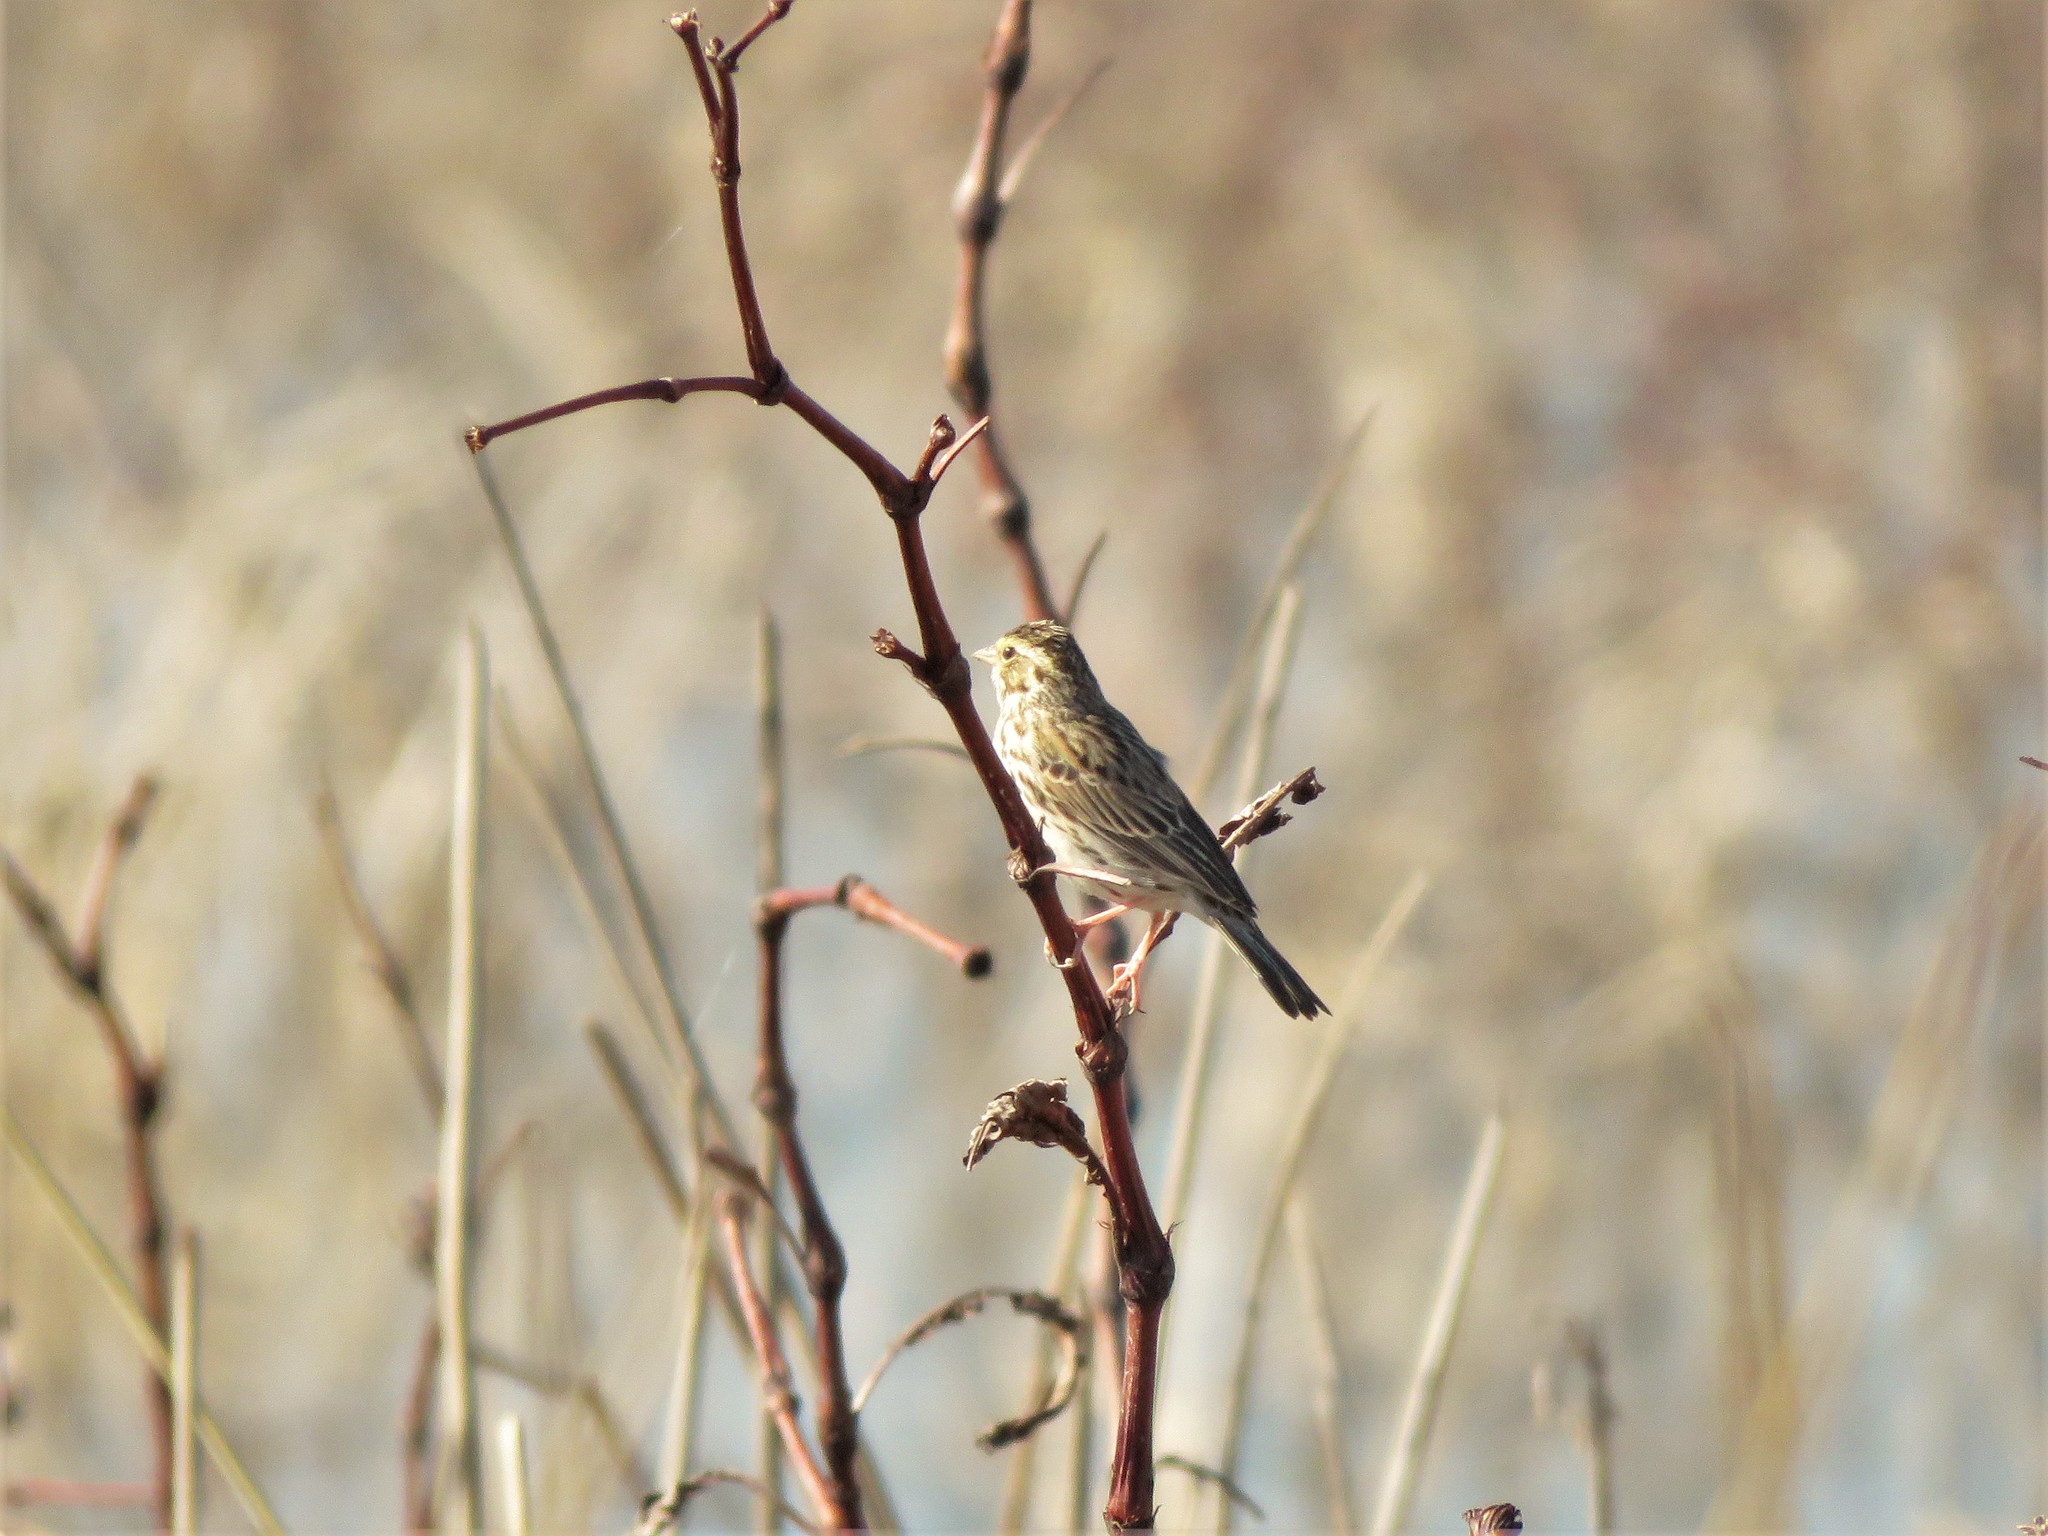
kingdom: Animalia
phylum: Chordata
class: Aves
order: Passeriformes
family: Passerellidae
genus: Passerculus
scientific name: Passerculus sandwichensis
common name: Savannah sparrow
